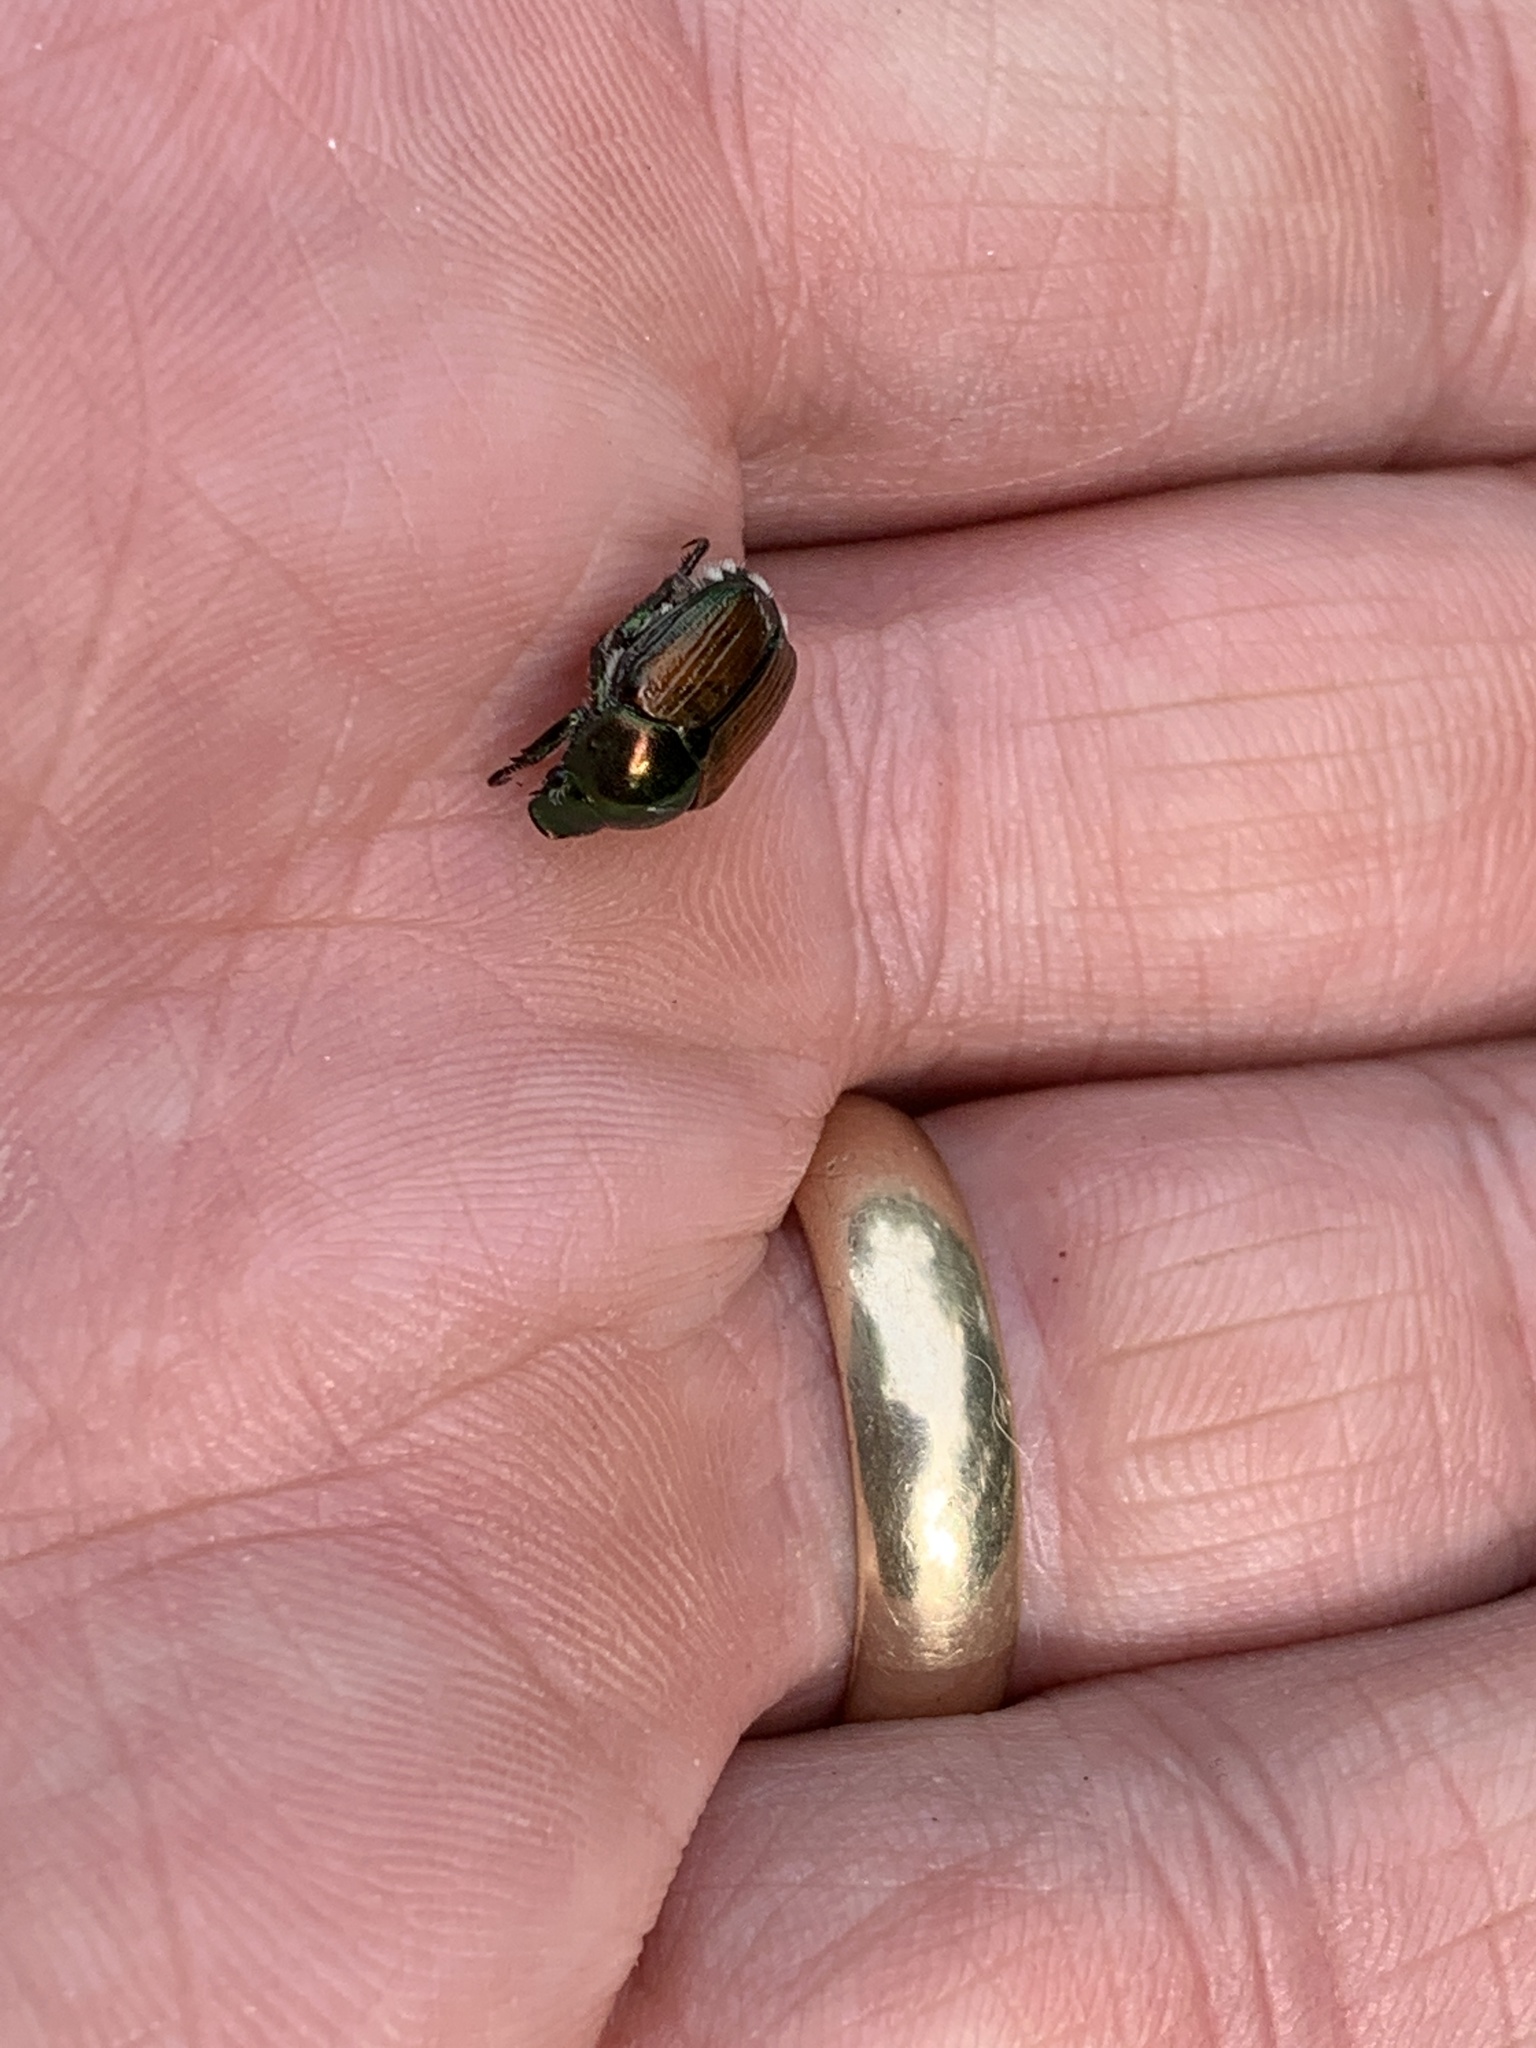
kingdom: Animalia
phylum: Arthropoda
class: Insecta
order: Coleoptera
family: Scarabaeidae
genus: Popillia
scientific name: Popillia japonica
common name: Japanese beetle
